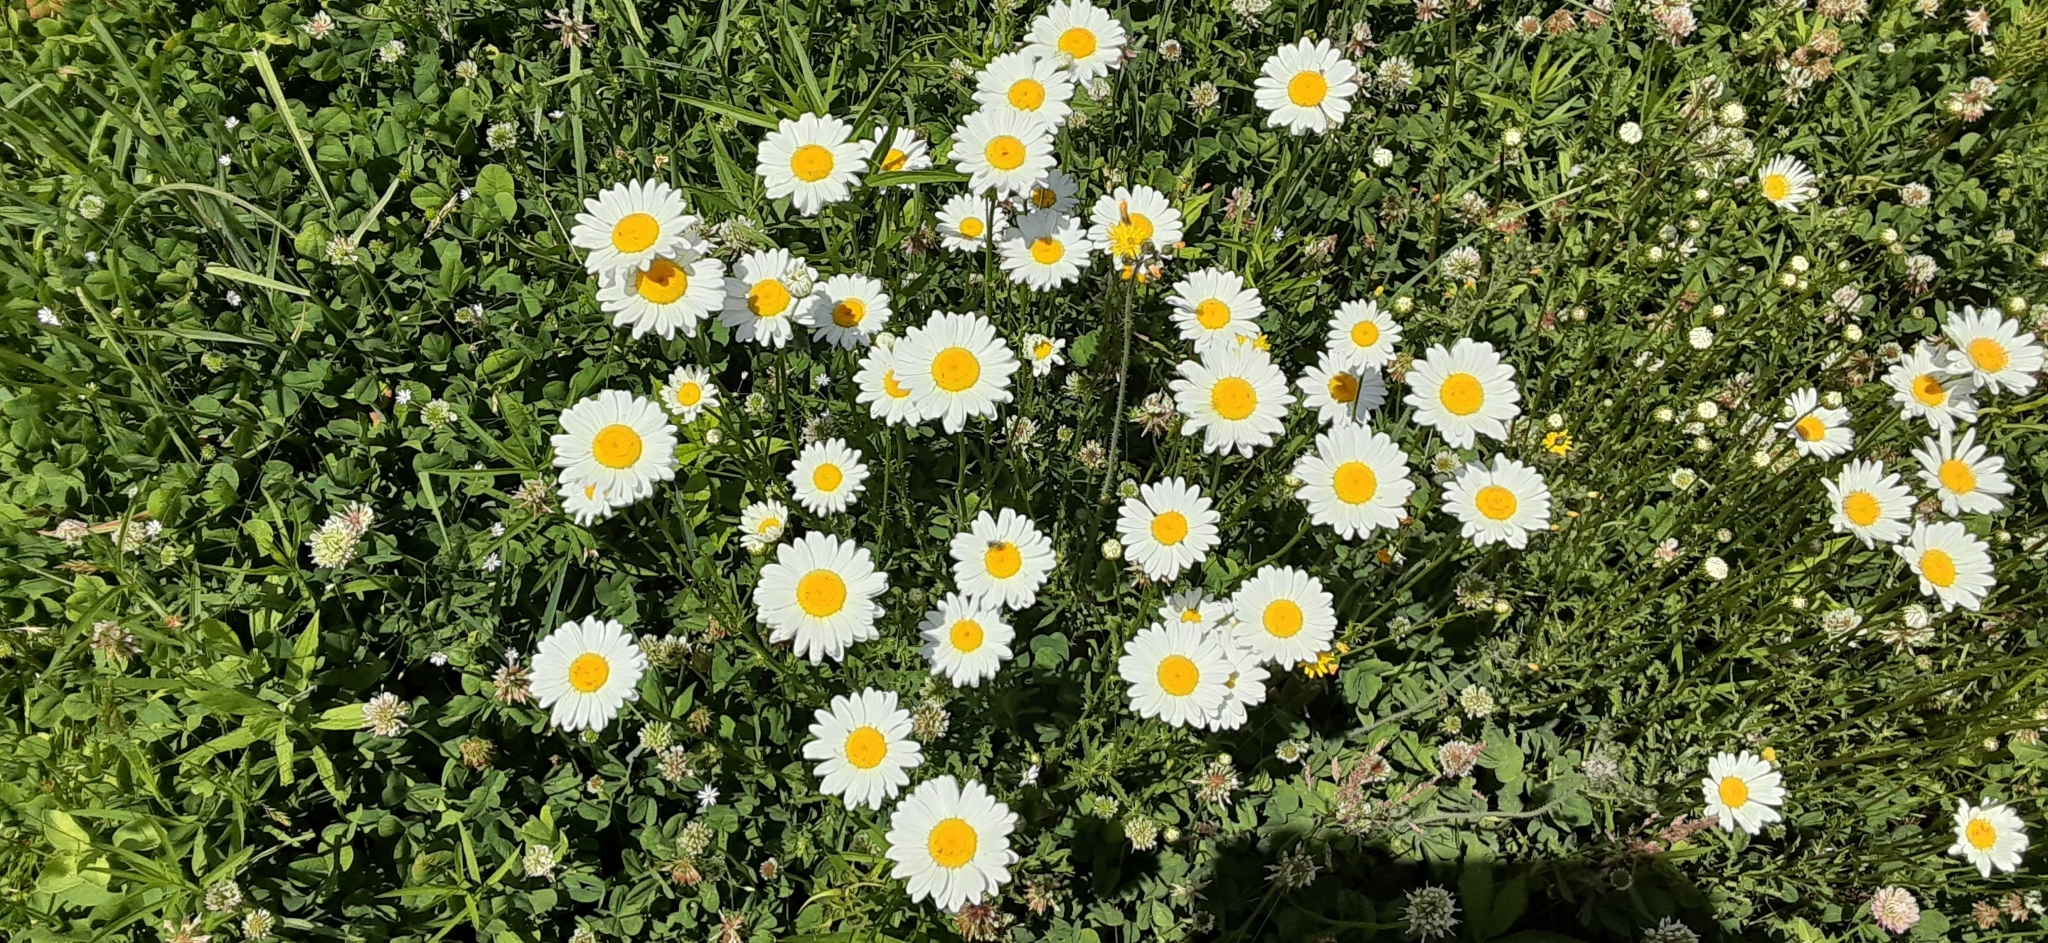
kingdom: Plantae
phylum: Tracheophyta
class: Magnoliopsida
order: Asterales
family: Asteraceae
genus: Leucanthemum
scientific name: Leucanthemum vulgare
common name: Oxeye daisy
